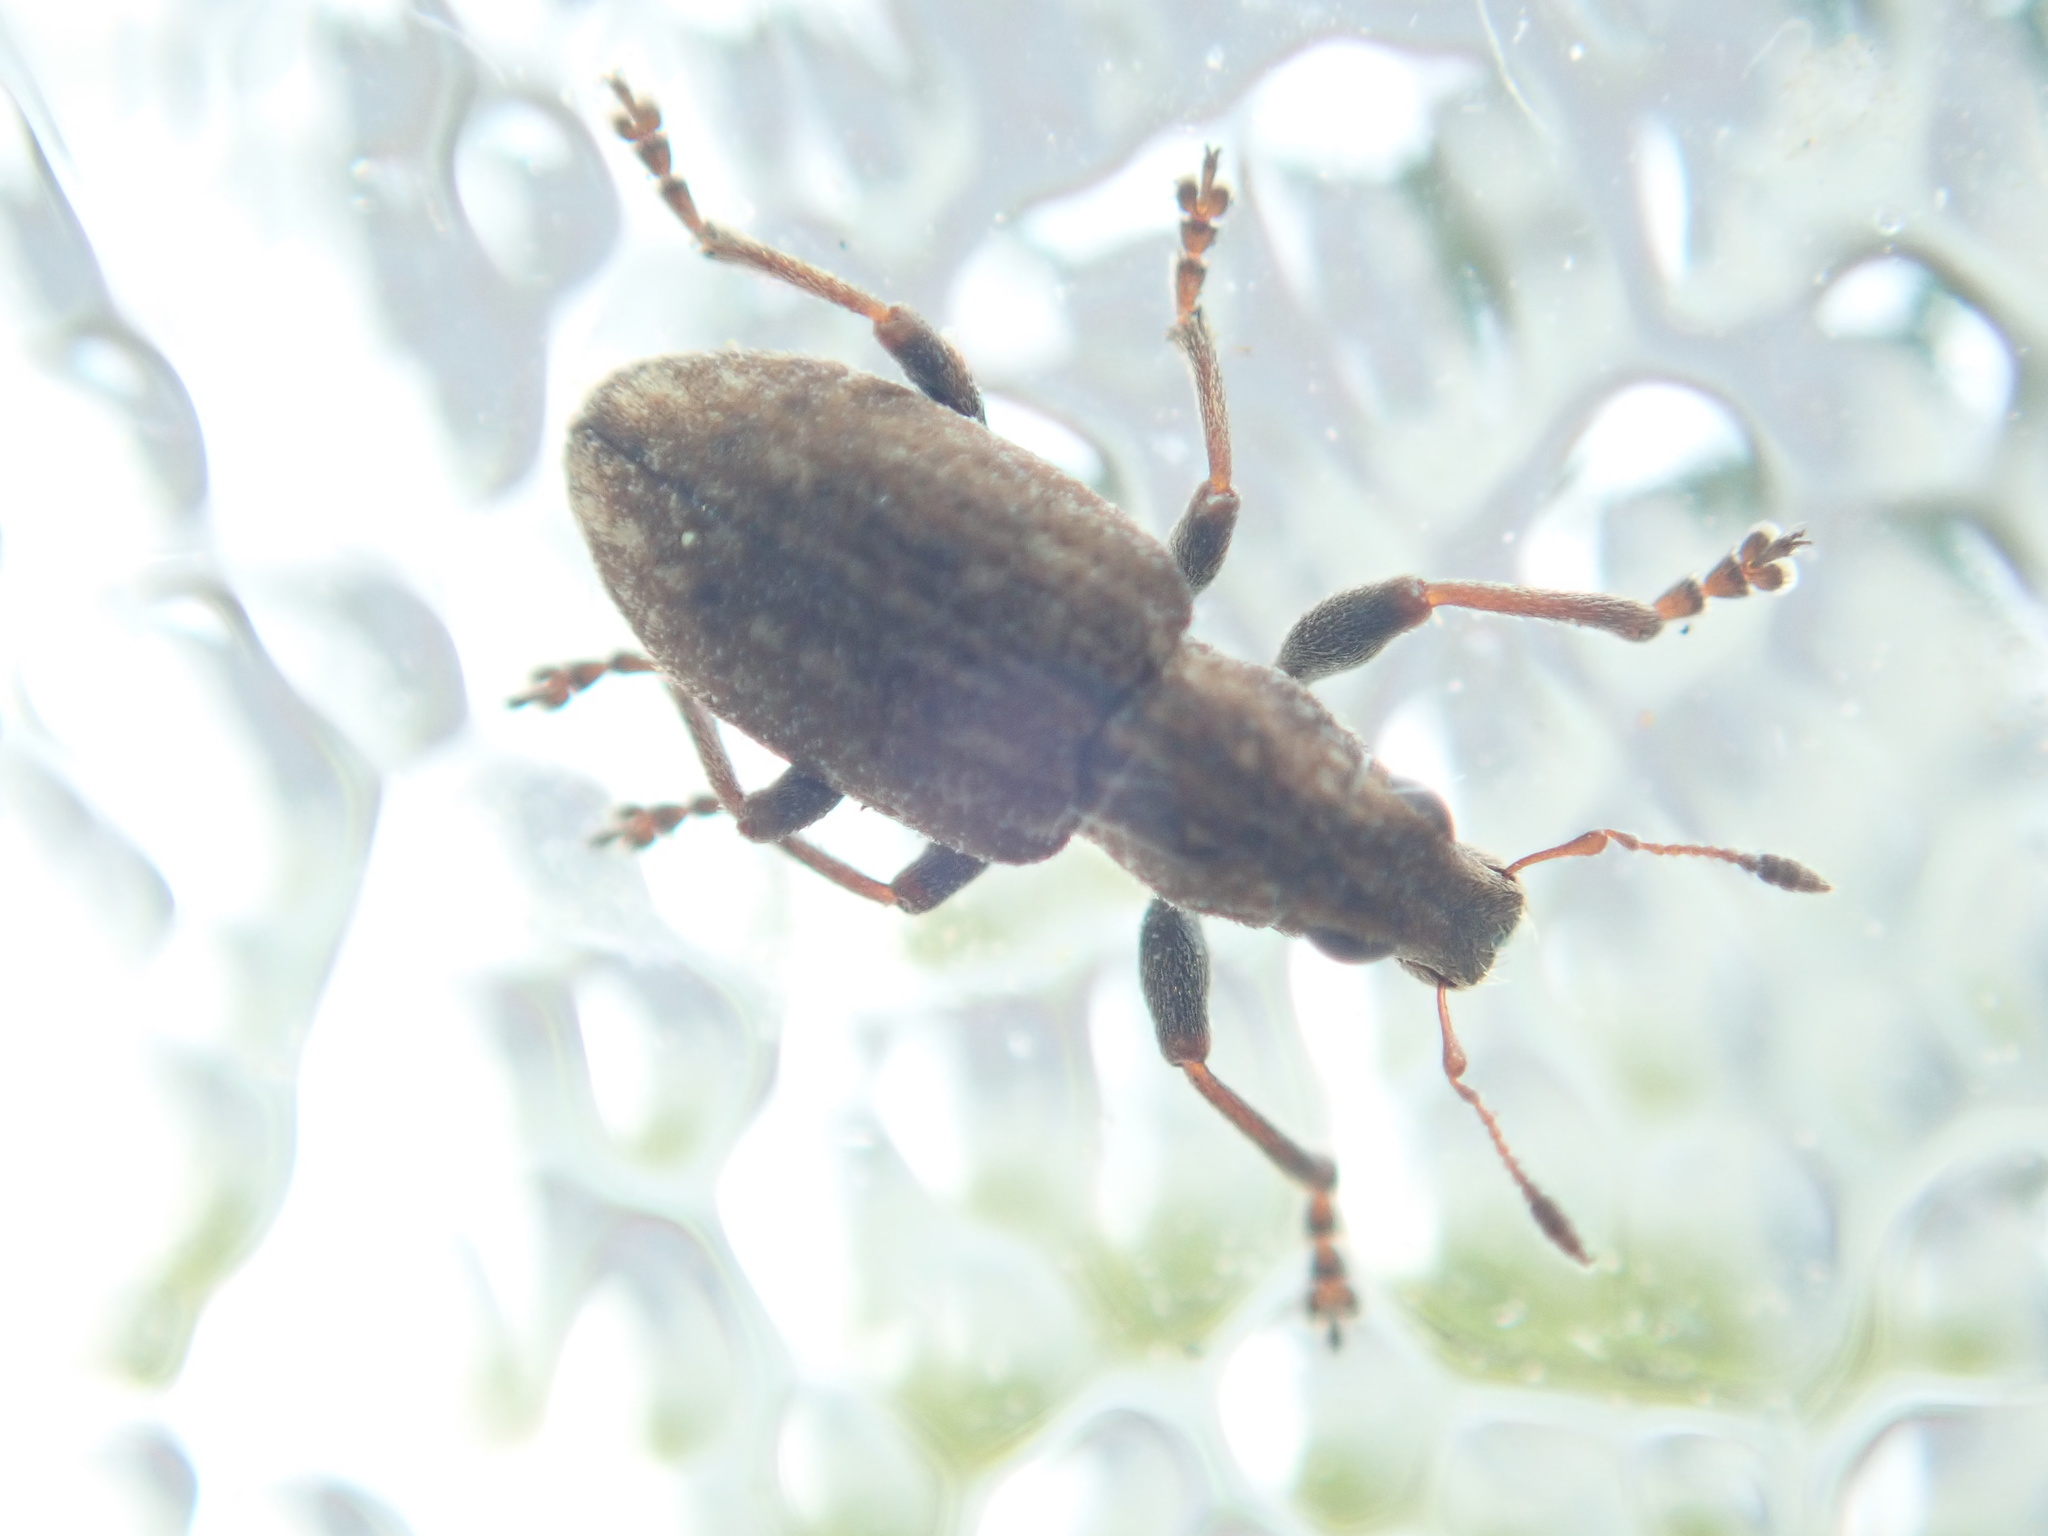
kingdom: Animalia
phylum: Arthropoda
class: Insecta
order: Coleoptera
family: Curculionidae
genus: Sitona
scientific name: Sitona obsoletus
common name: Weevil
